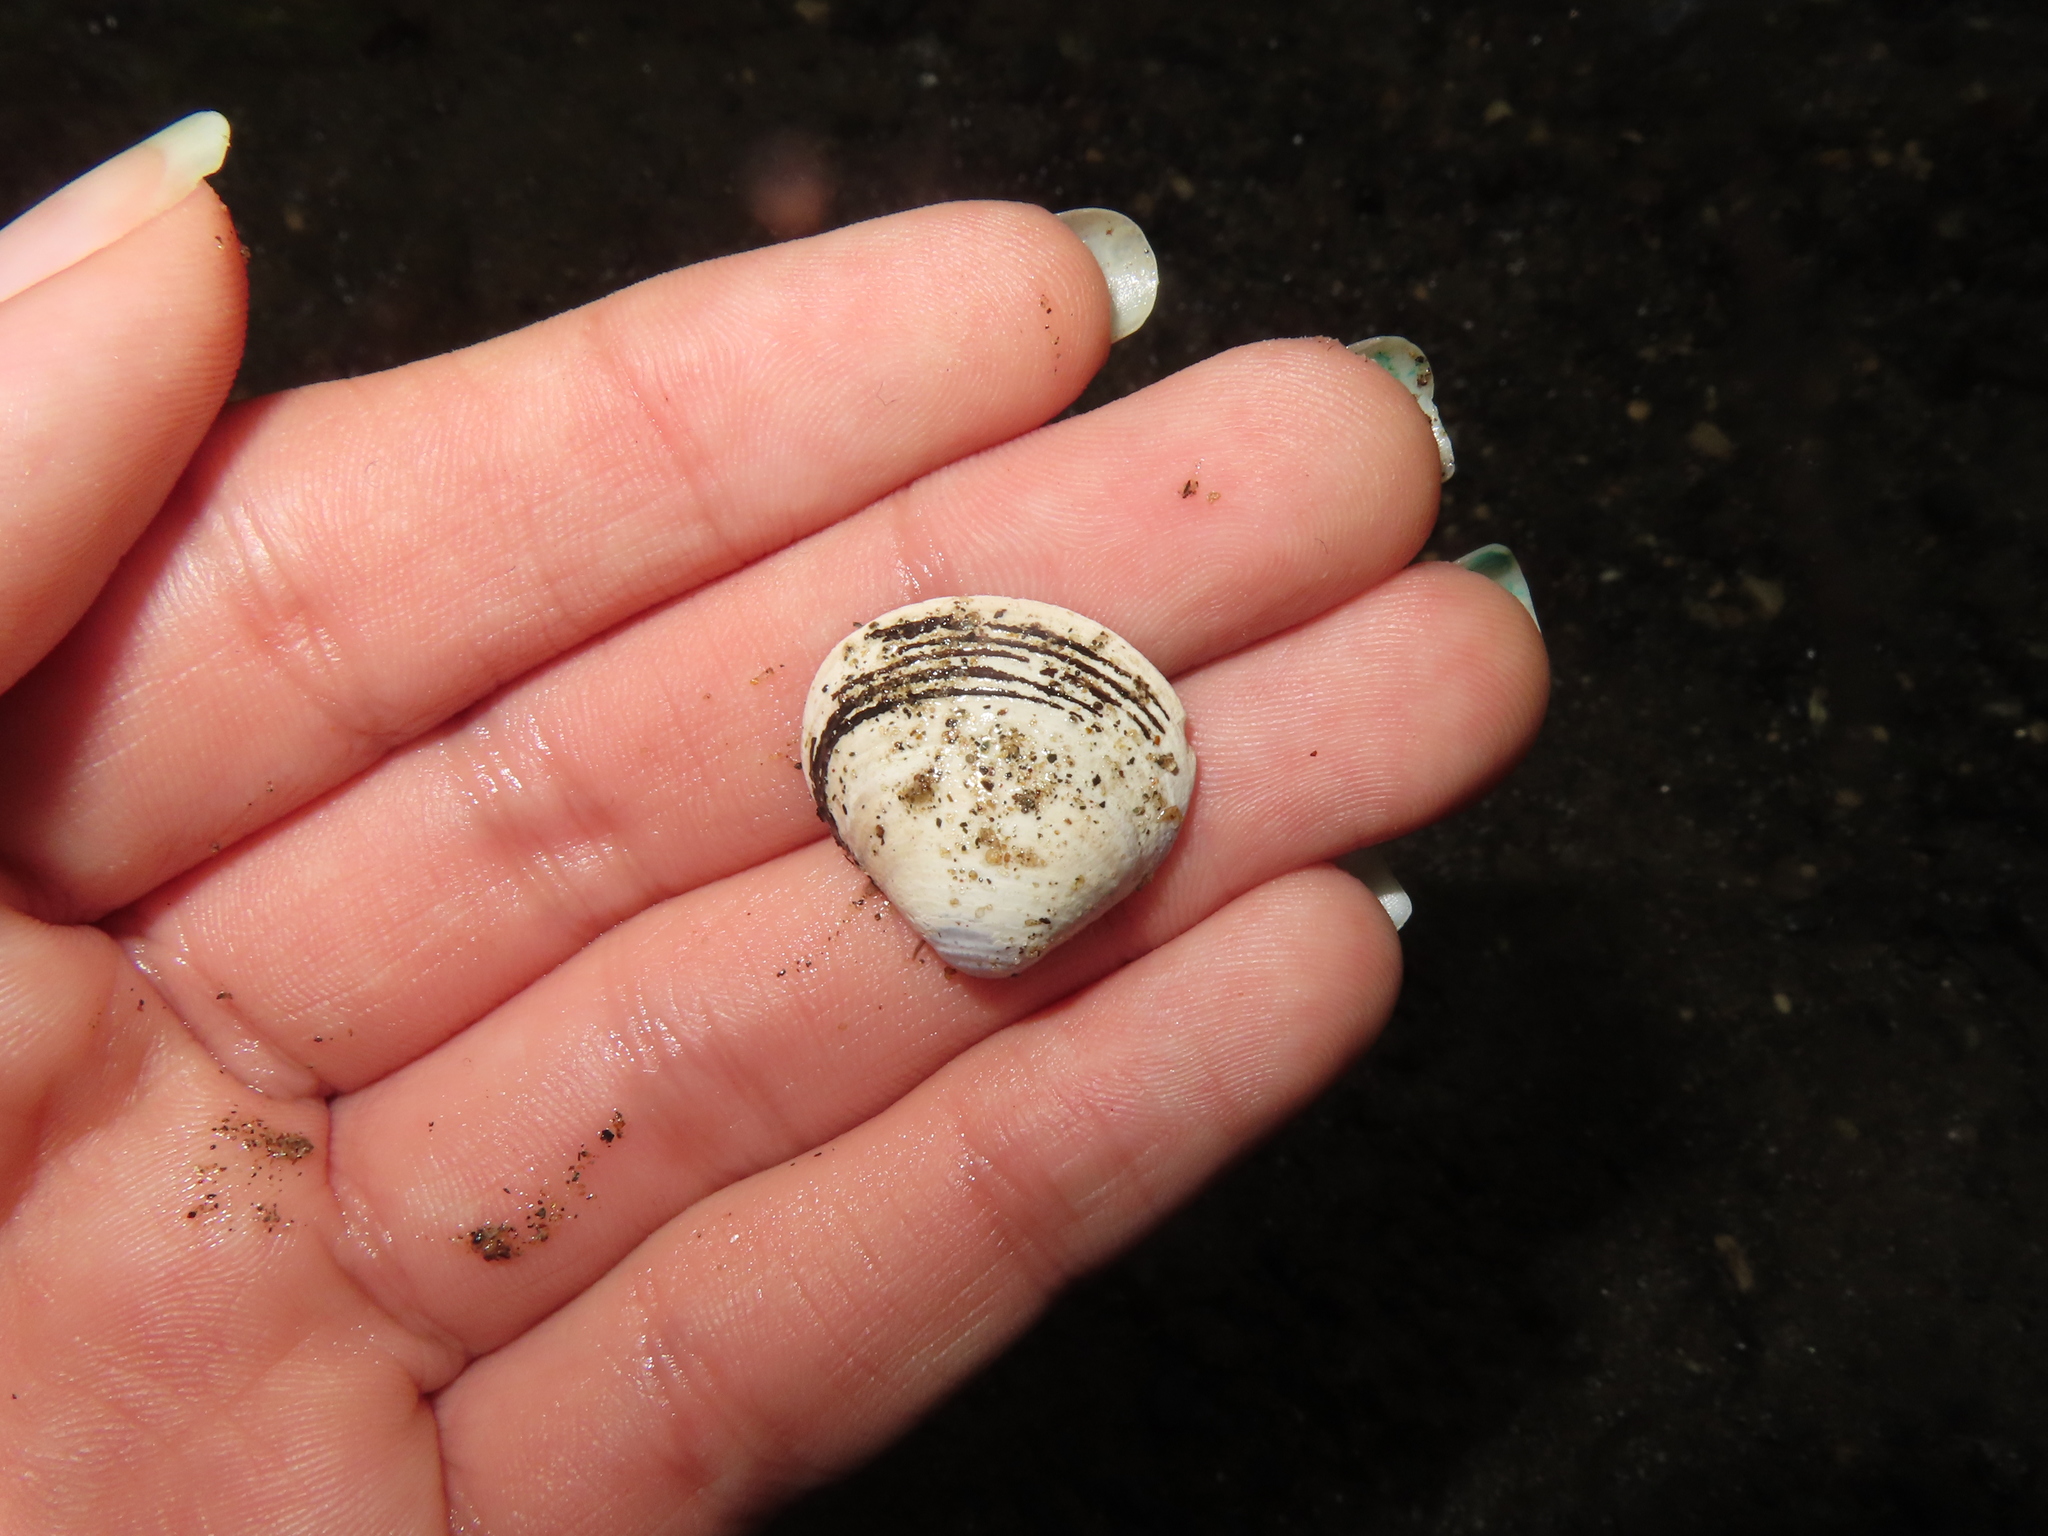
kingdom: Animalia
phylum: Mollusca
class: Bivalvia
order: Venerida
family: Cyrenidae
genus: Corbicula
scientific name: Corbicula fluminea
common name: Asian clam
